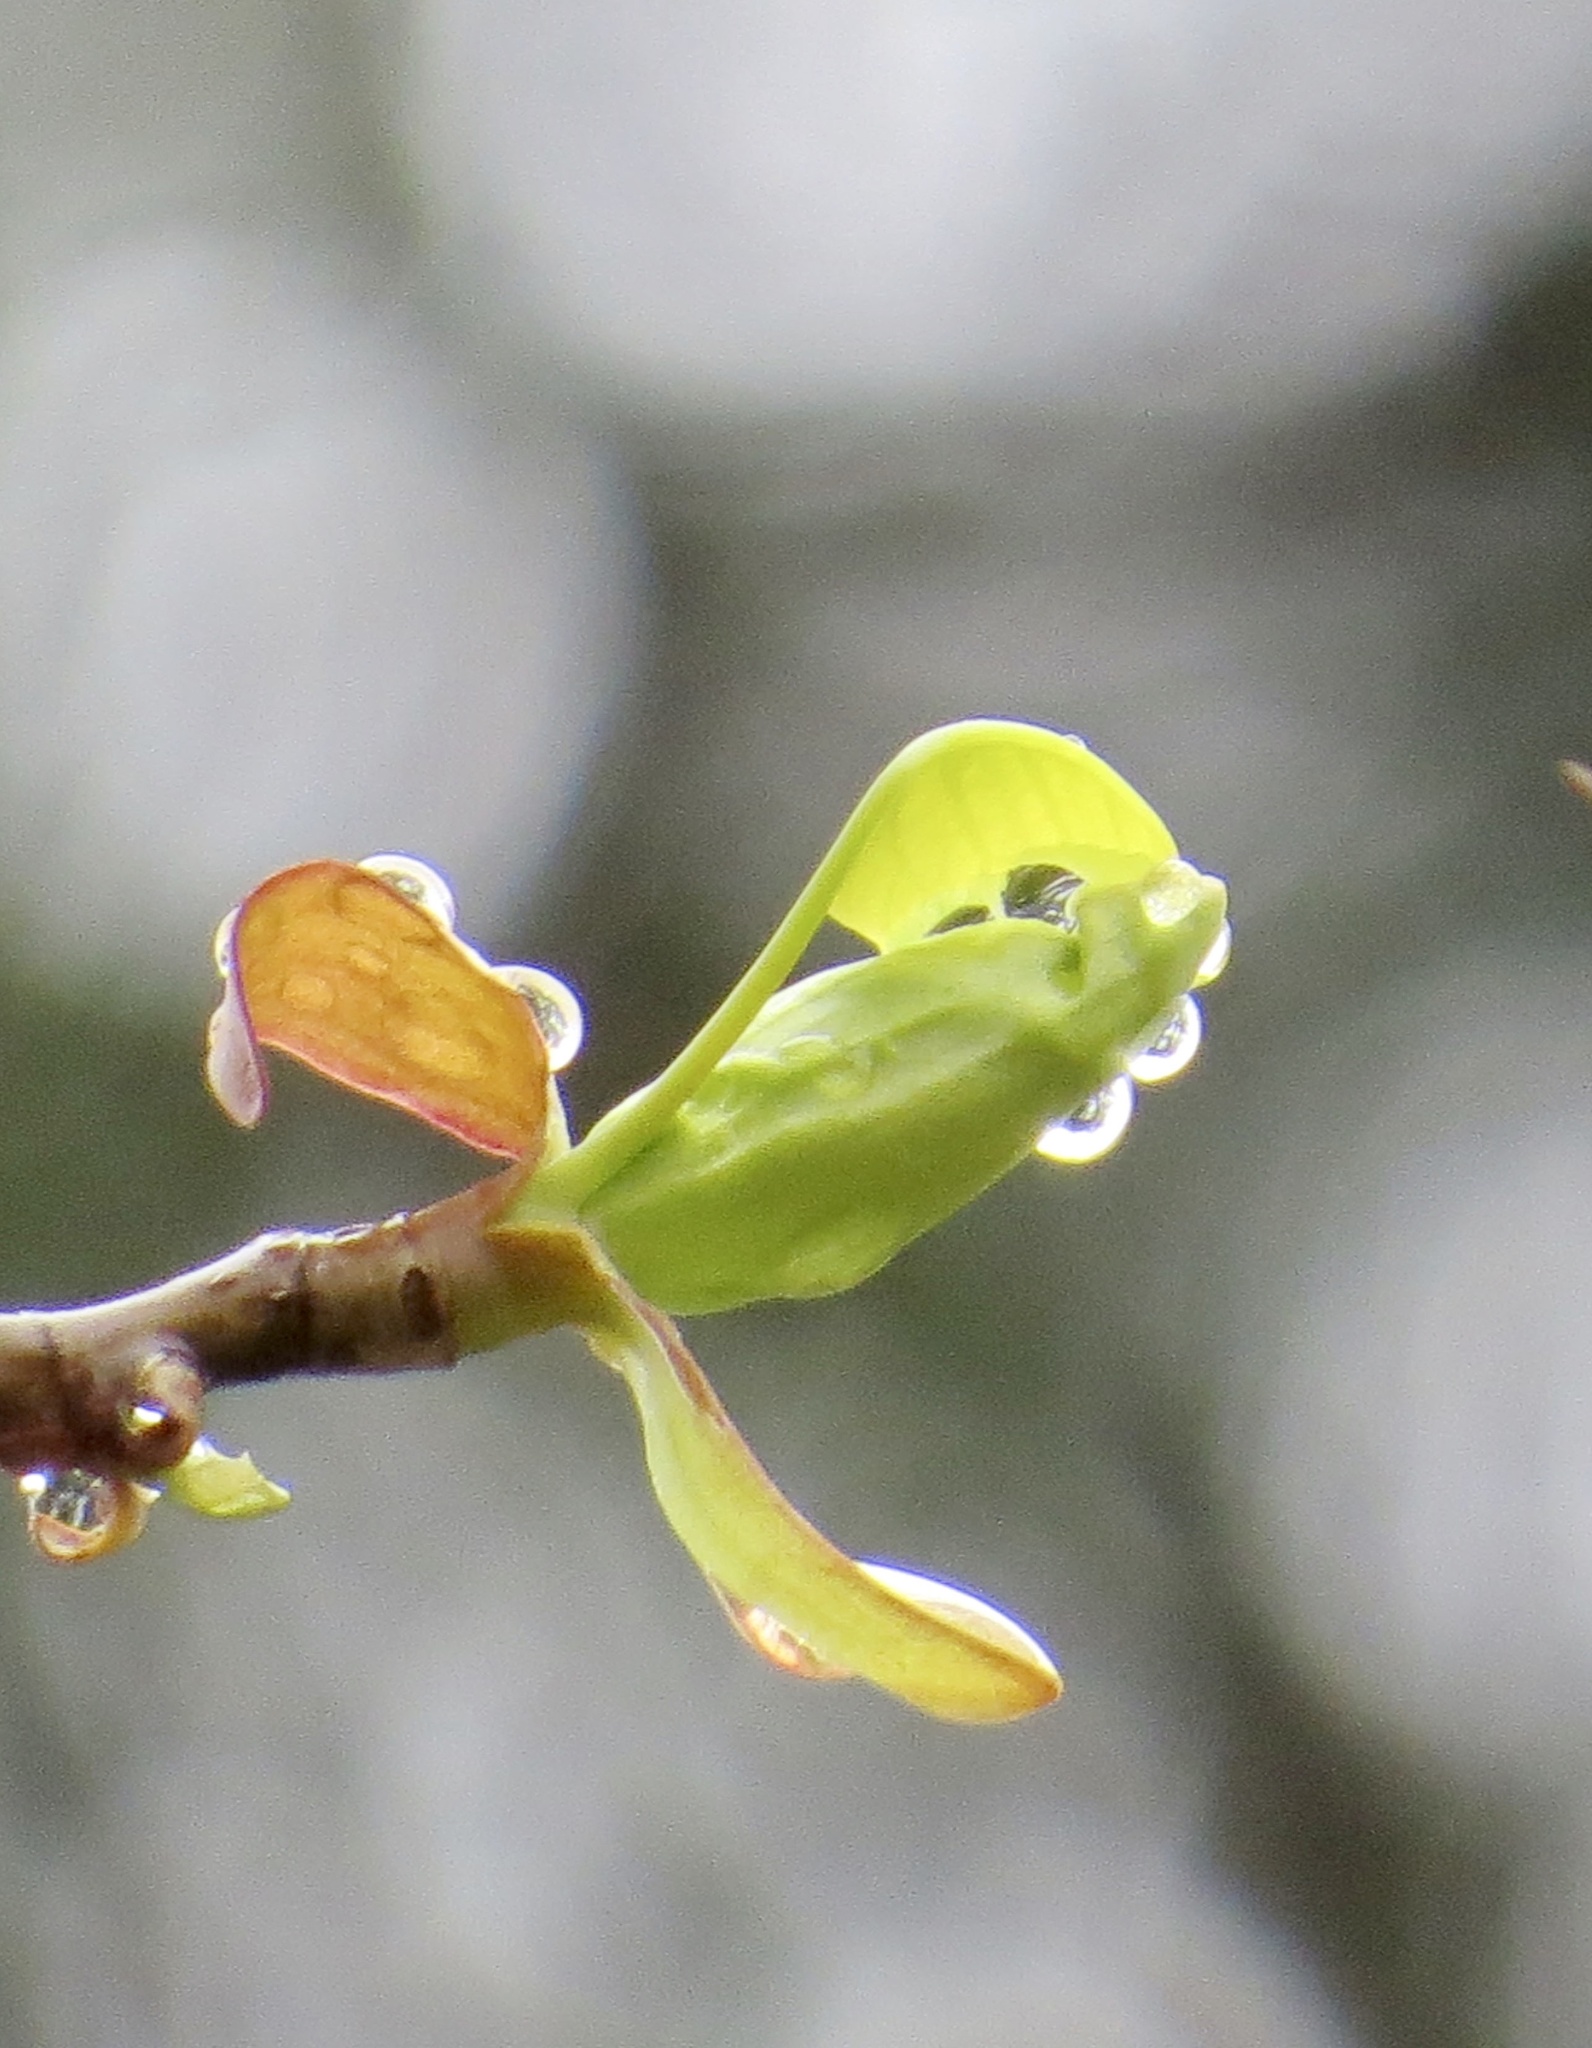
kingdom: Plantae
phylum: Tracheophyta
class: Magnoliopsida
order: Magnoliales
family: Magnoliaceae
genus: Liriodendron
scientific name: Liriodendron tulipifera
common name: Tulip tree
